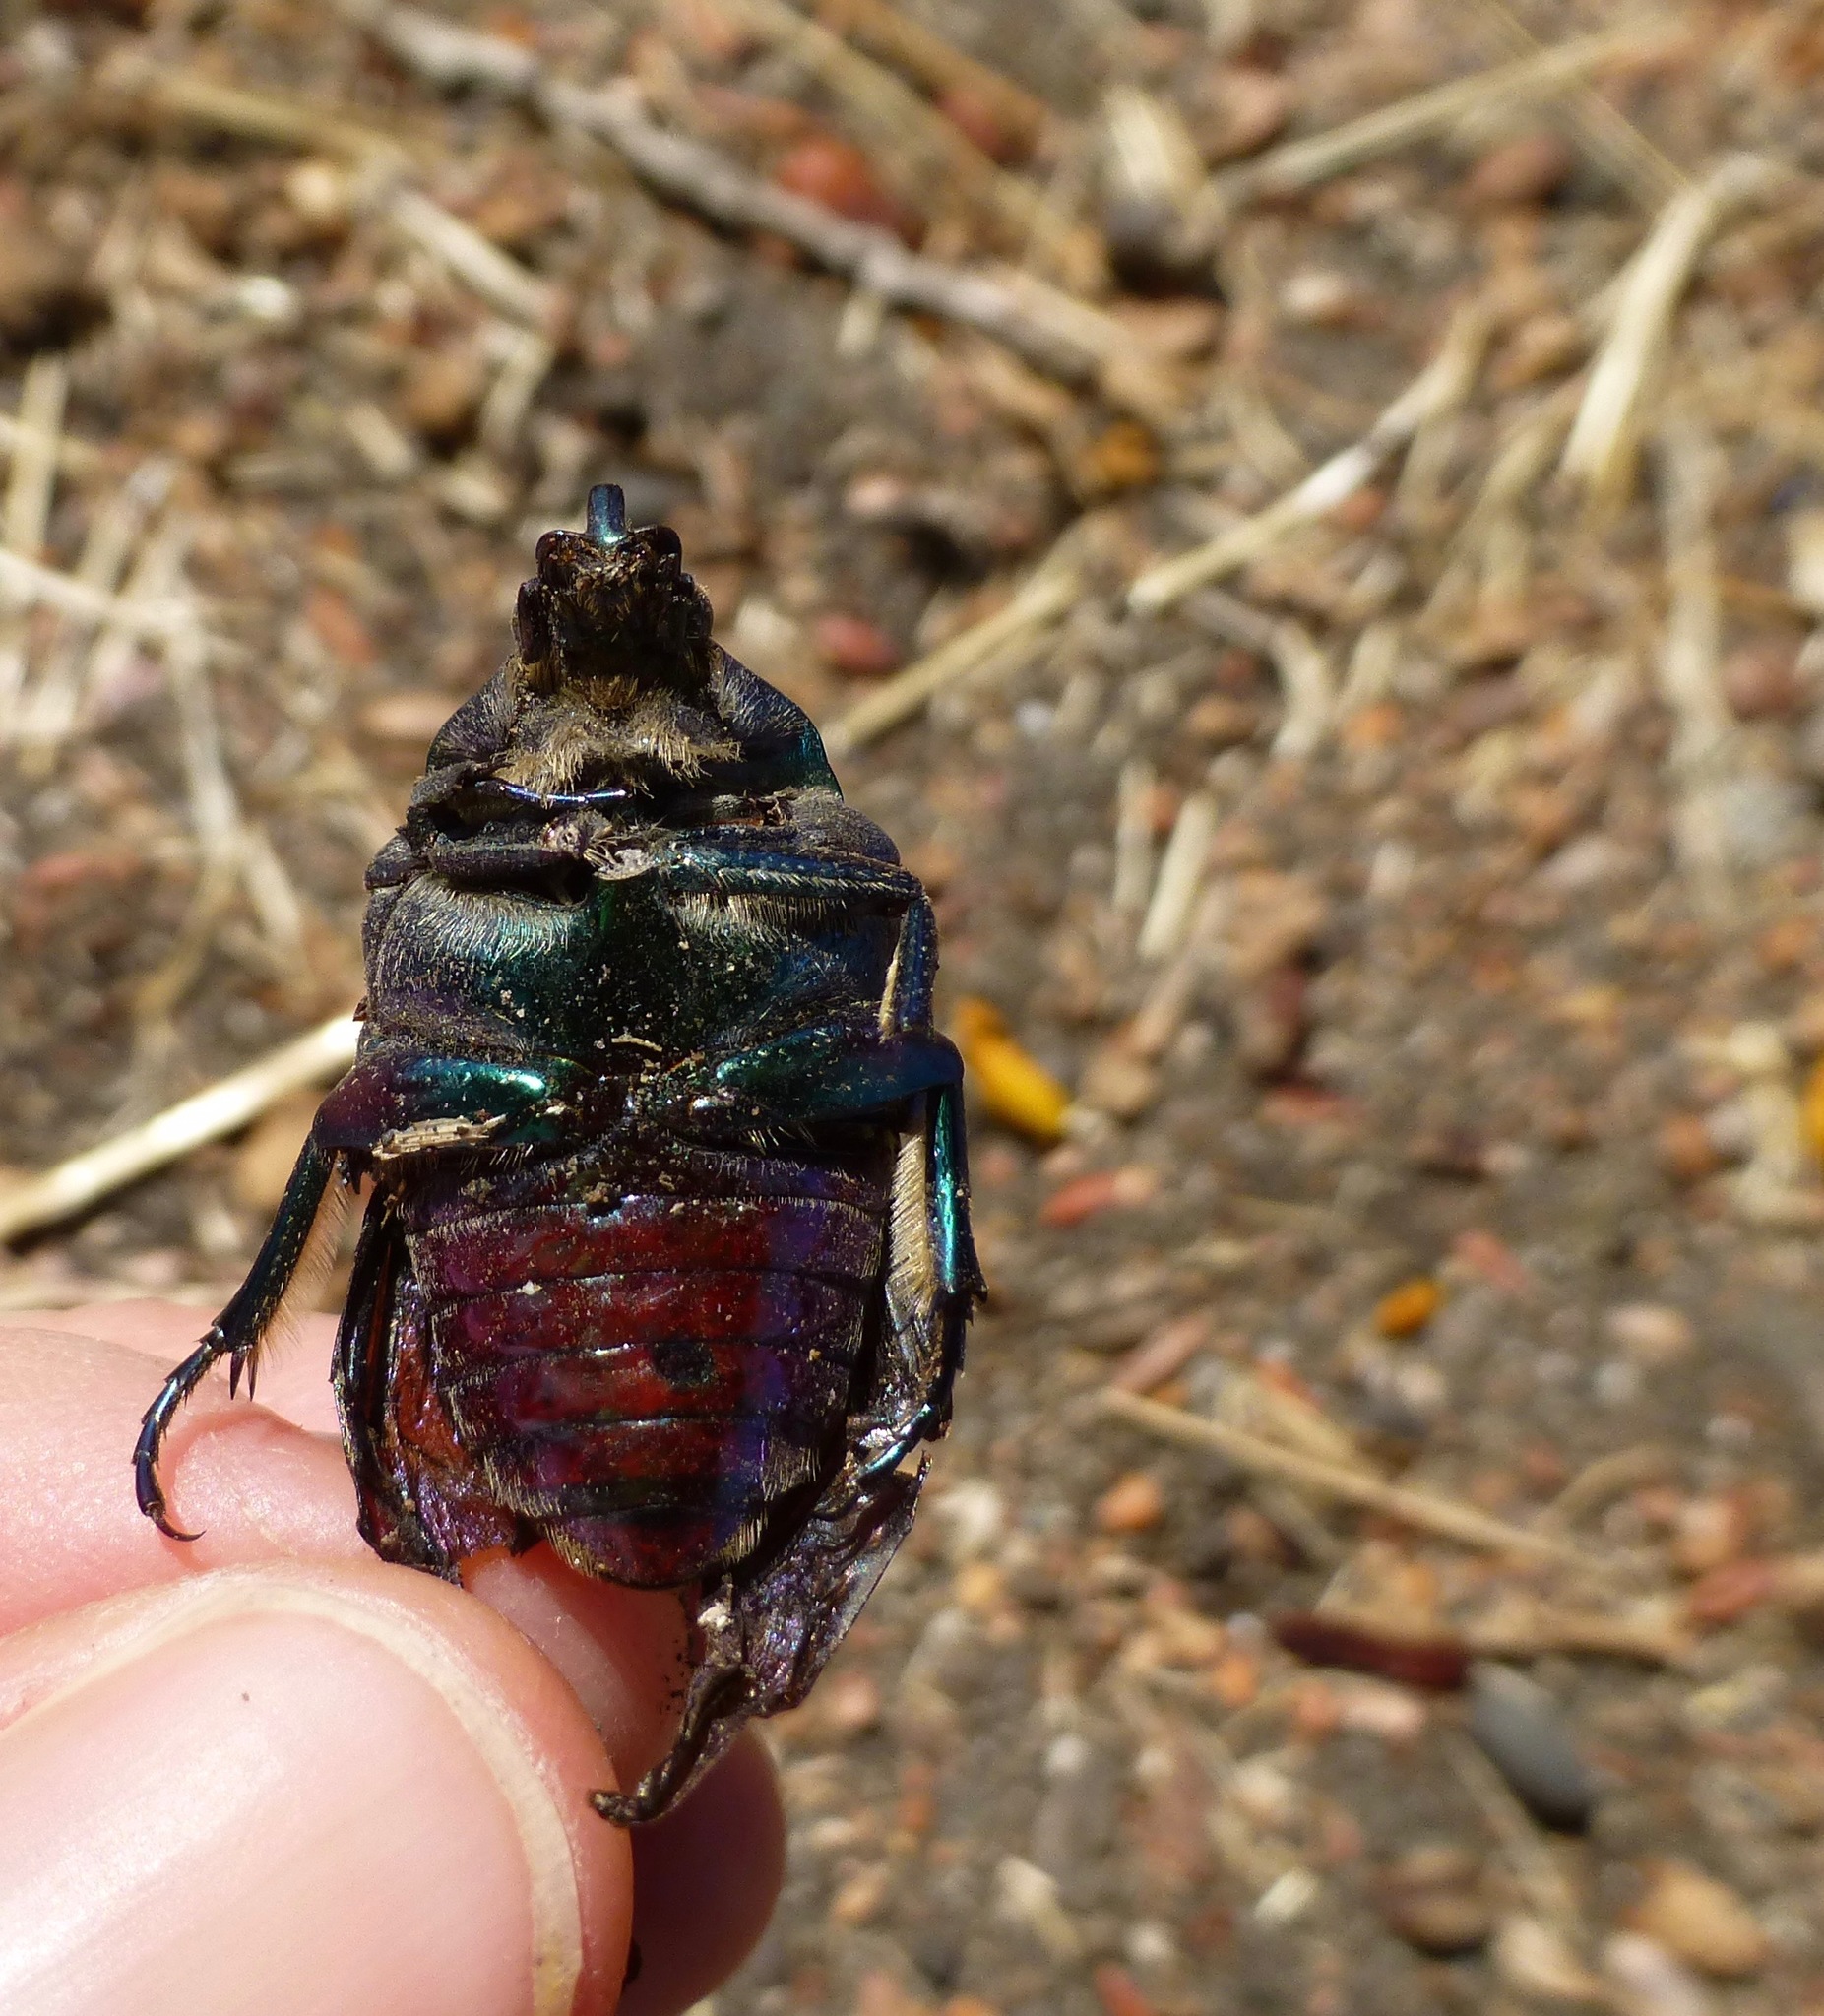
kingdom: Animalia
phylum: Arthropoda
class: Insecta
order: Coleoptera
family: Scarabaeidae
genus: Cotinis
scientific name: Cotinis mutabilis
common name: Figeater beetle
